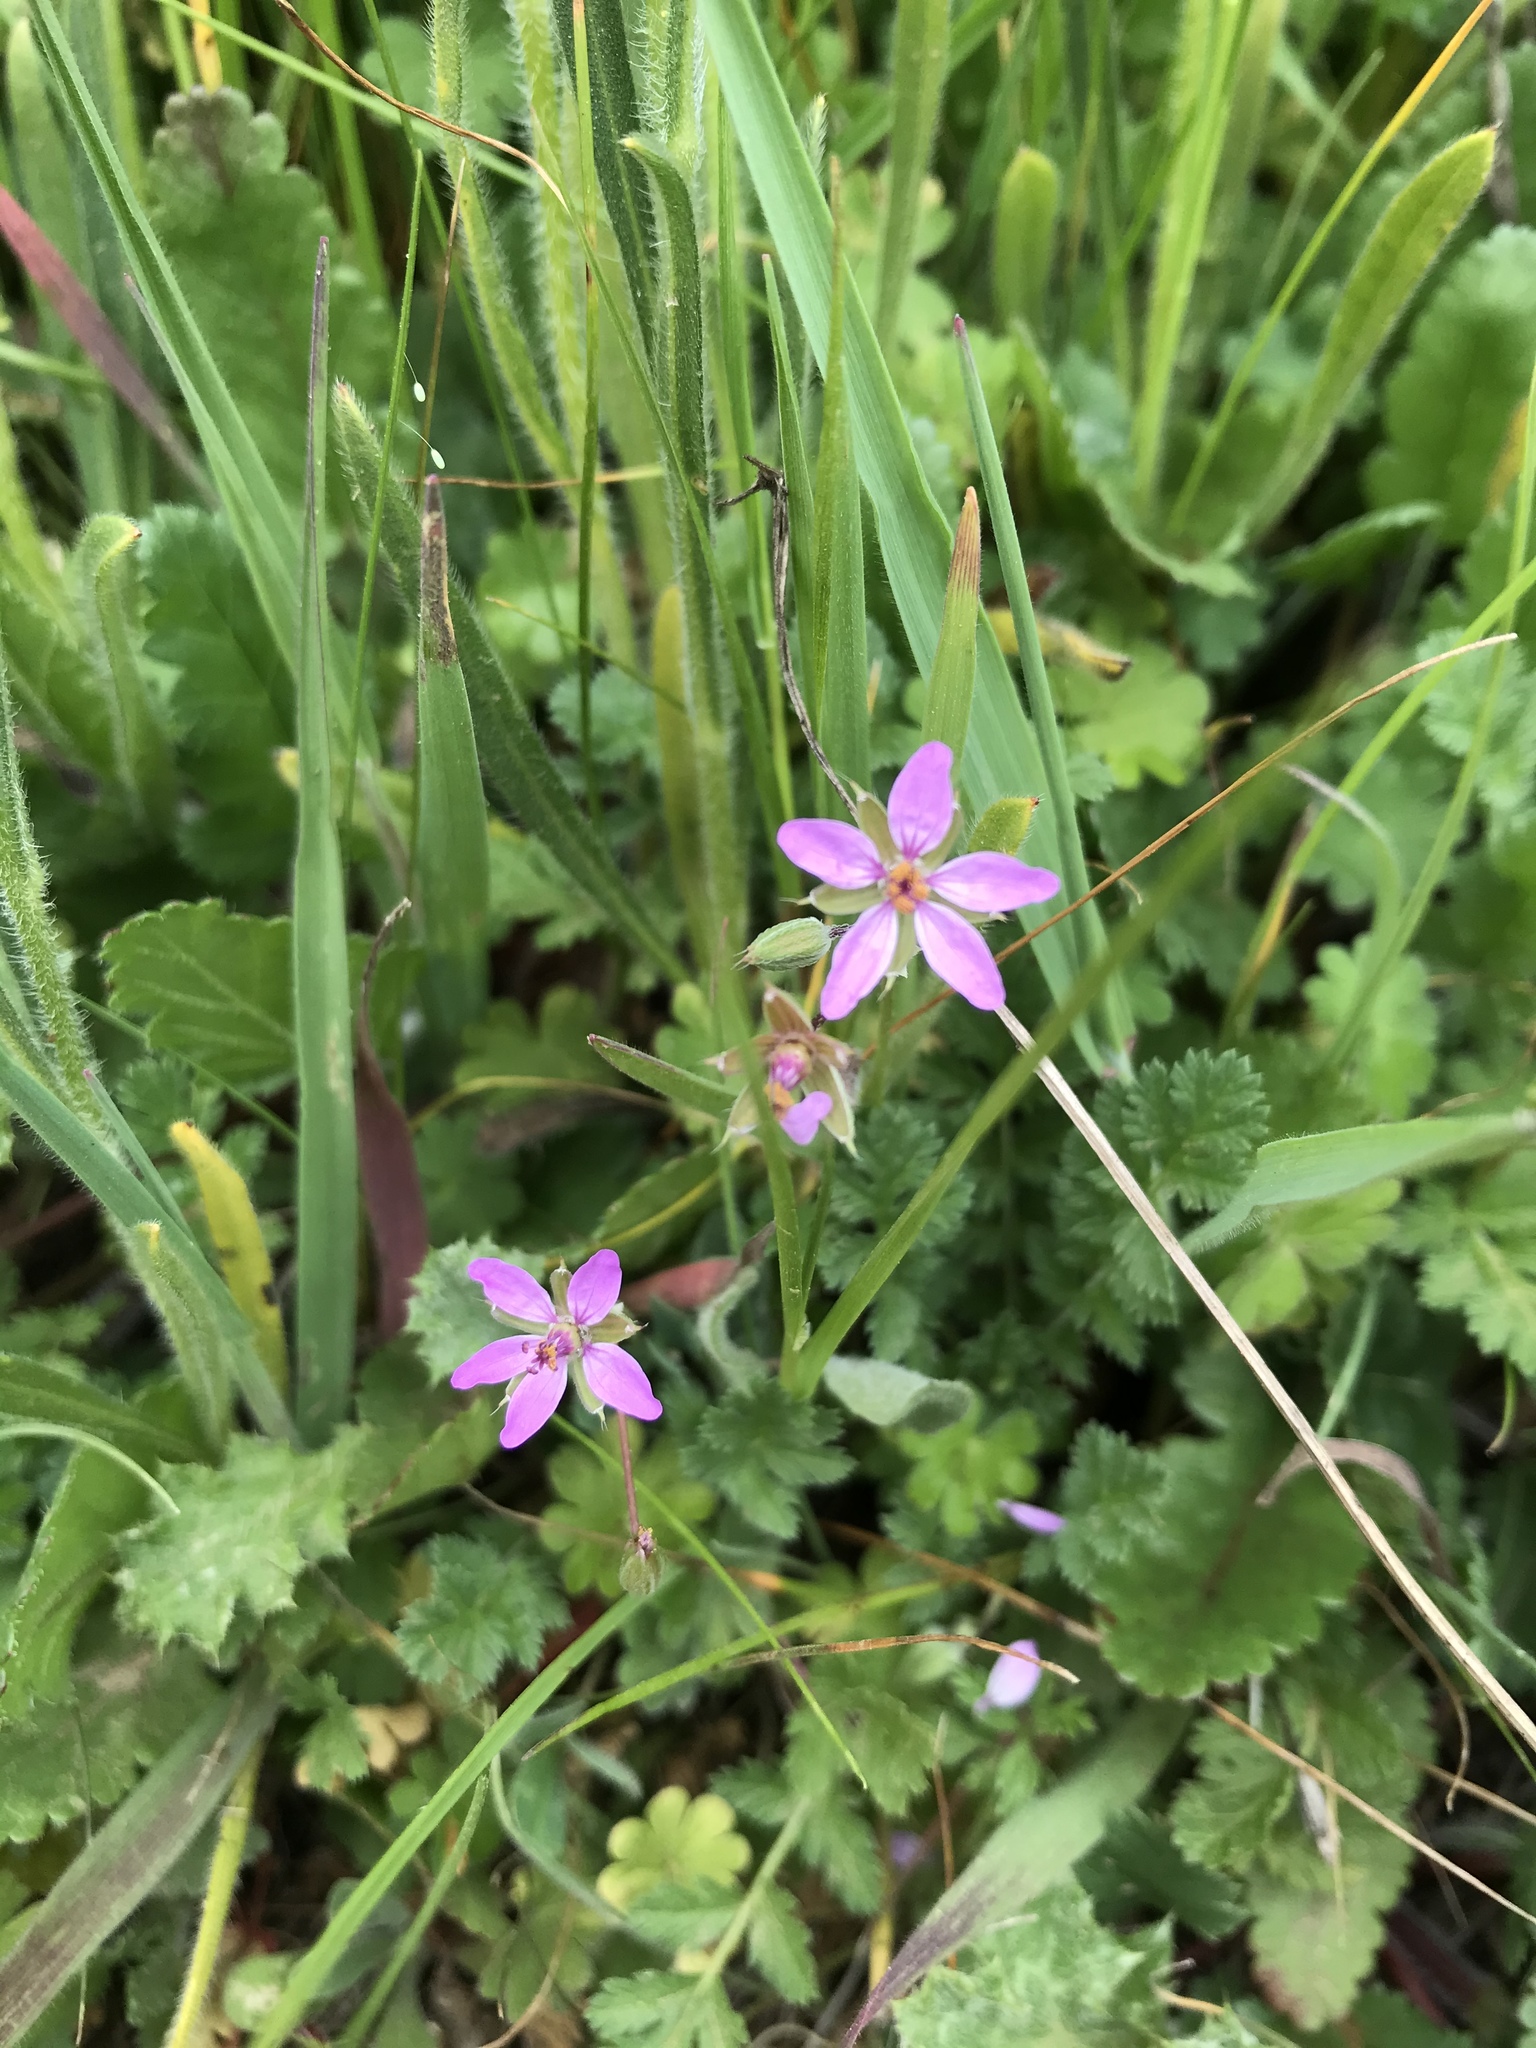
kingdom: Plantae
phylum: Tracheophyta
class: Magnoliopsida
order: Geraniales
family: Geraniaceae
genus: Erodium
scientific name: Erodium cicutarium
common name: Common stork's-bill
